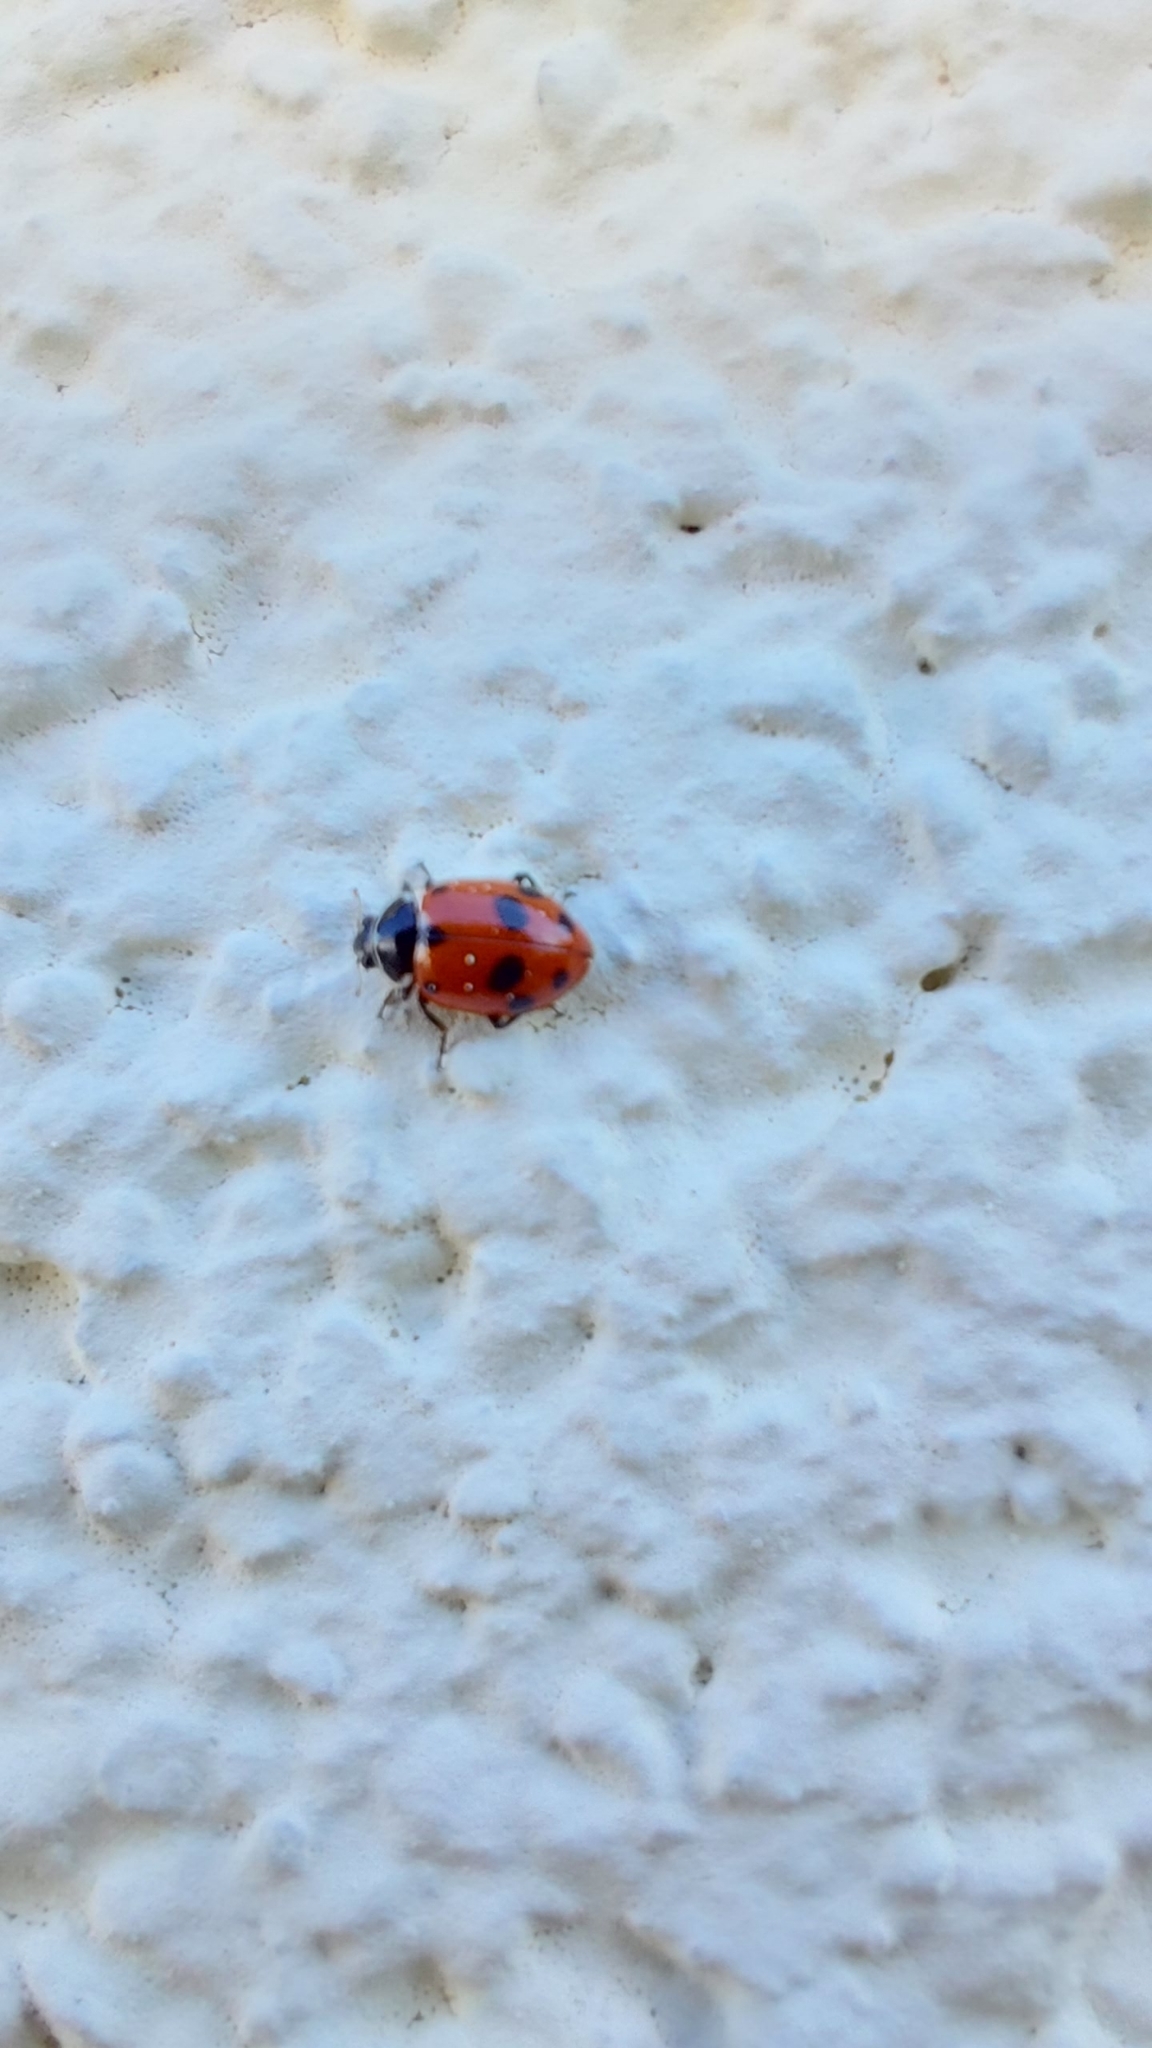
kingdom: Animalia
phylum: Arthropoda
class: Insecta
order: Coleoptera
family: Coccinellidae
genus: Hippodamia
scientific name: Hippodamia variegata
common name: Ladybird beetle
